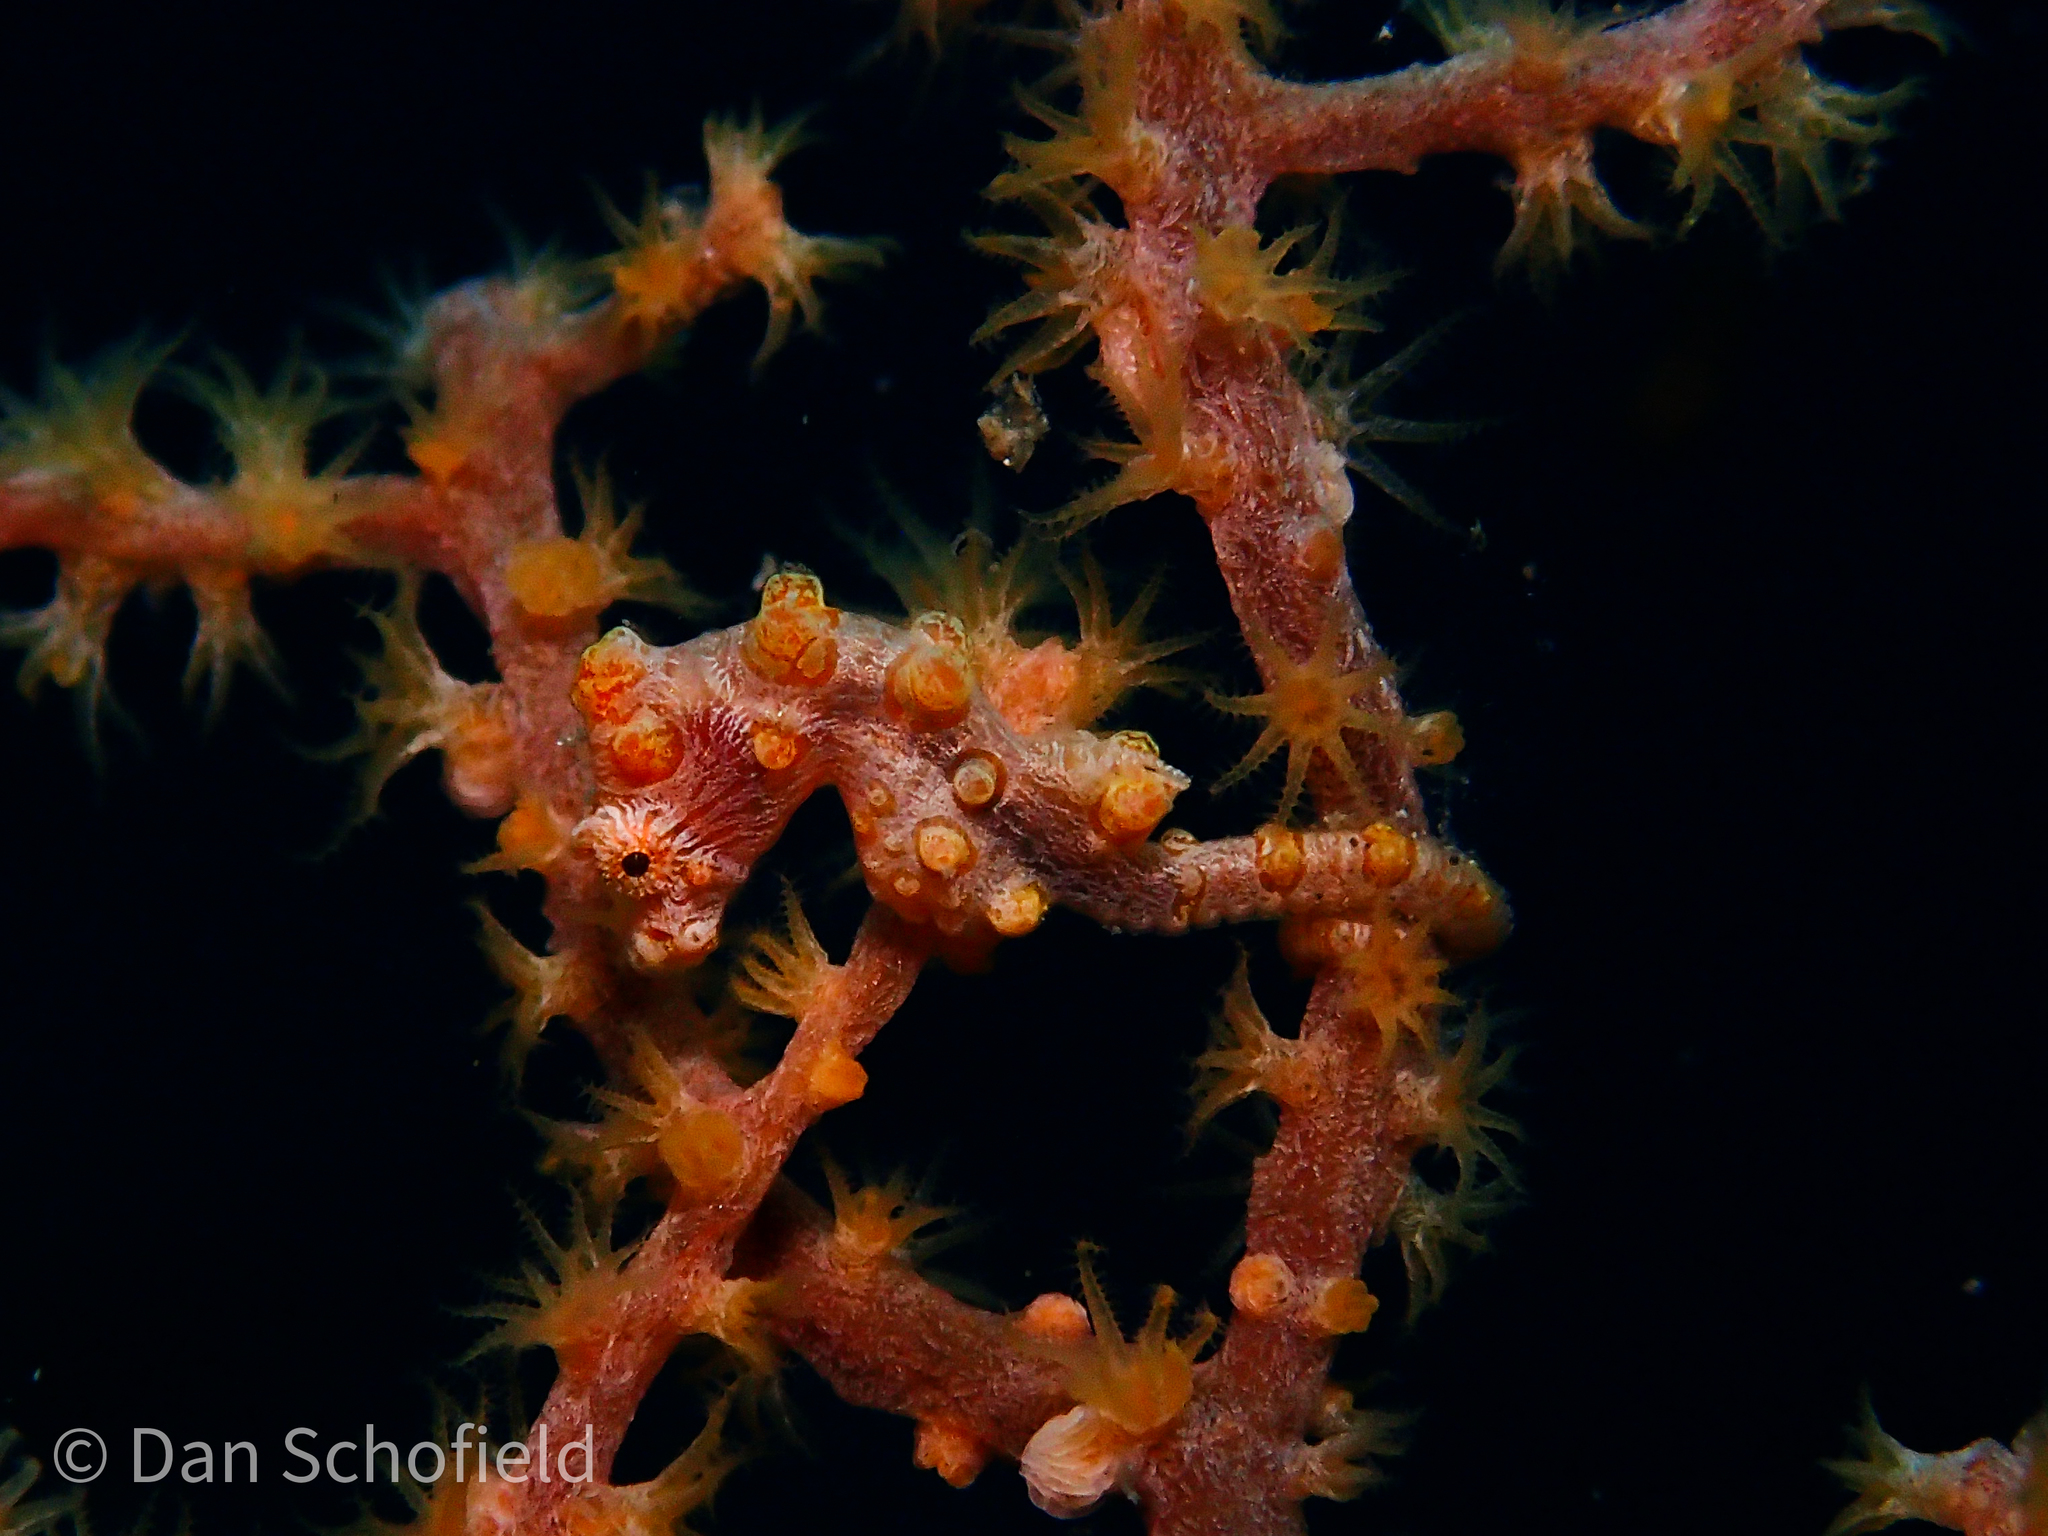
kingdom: Animalia
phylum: Chordata
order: Syngnathiformes
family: Syngnathidae
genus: Hippocampus
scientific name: Hippocampus bargibanti
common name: Bargibant's seahorse
